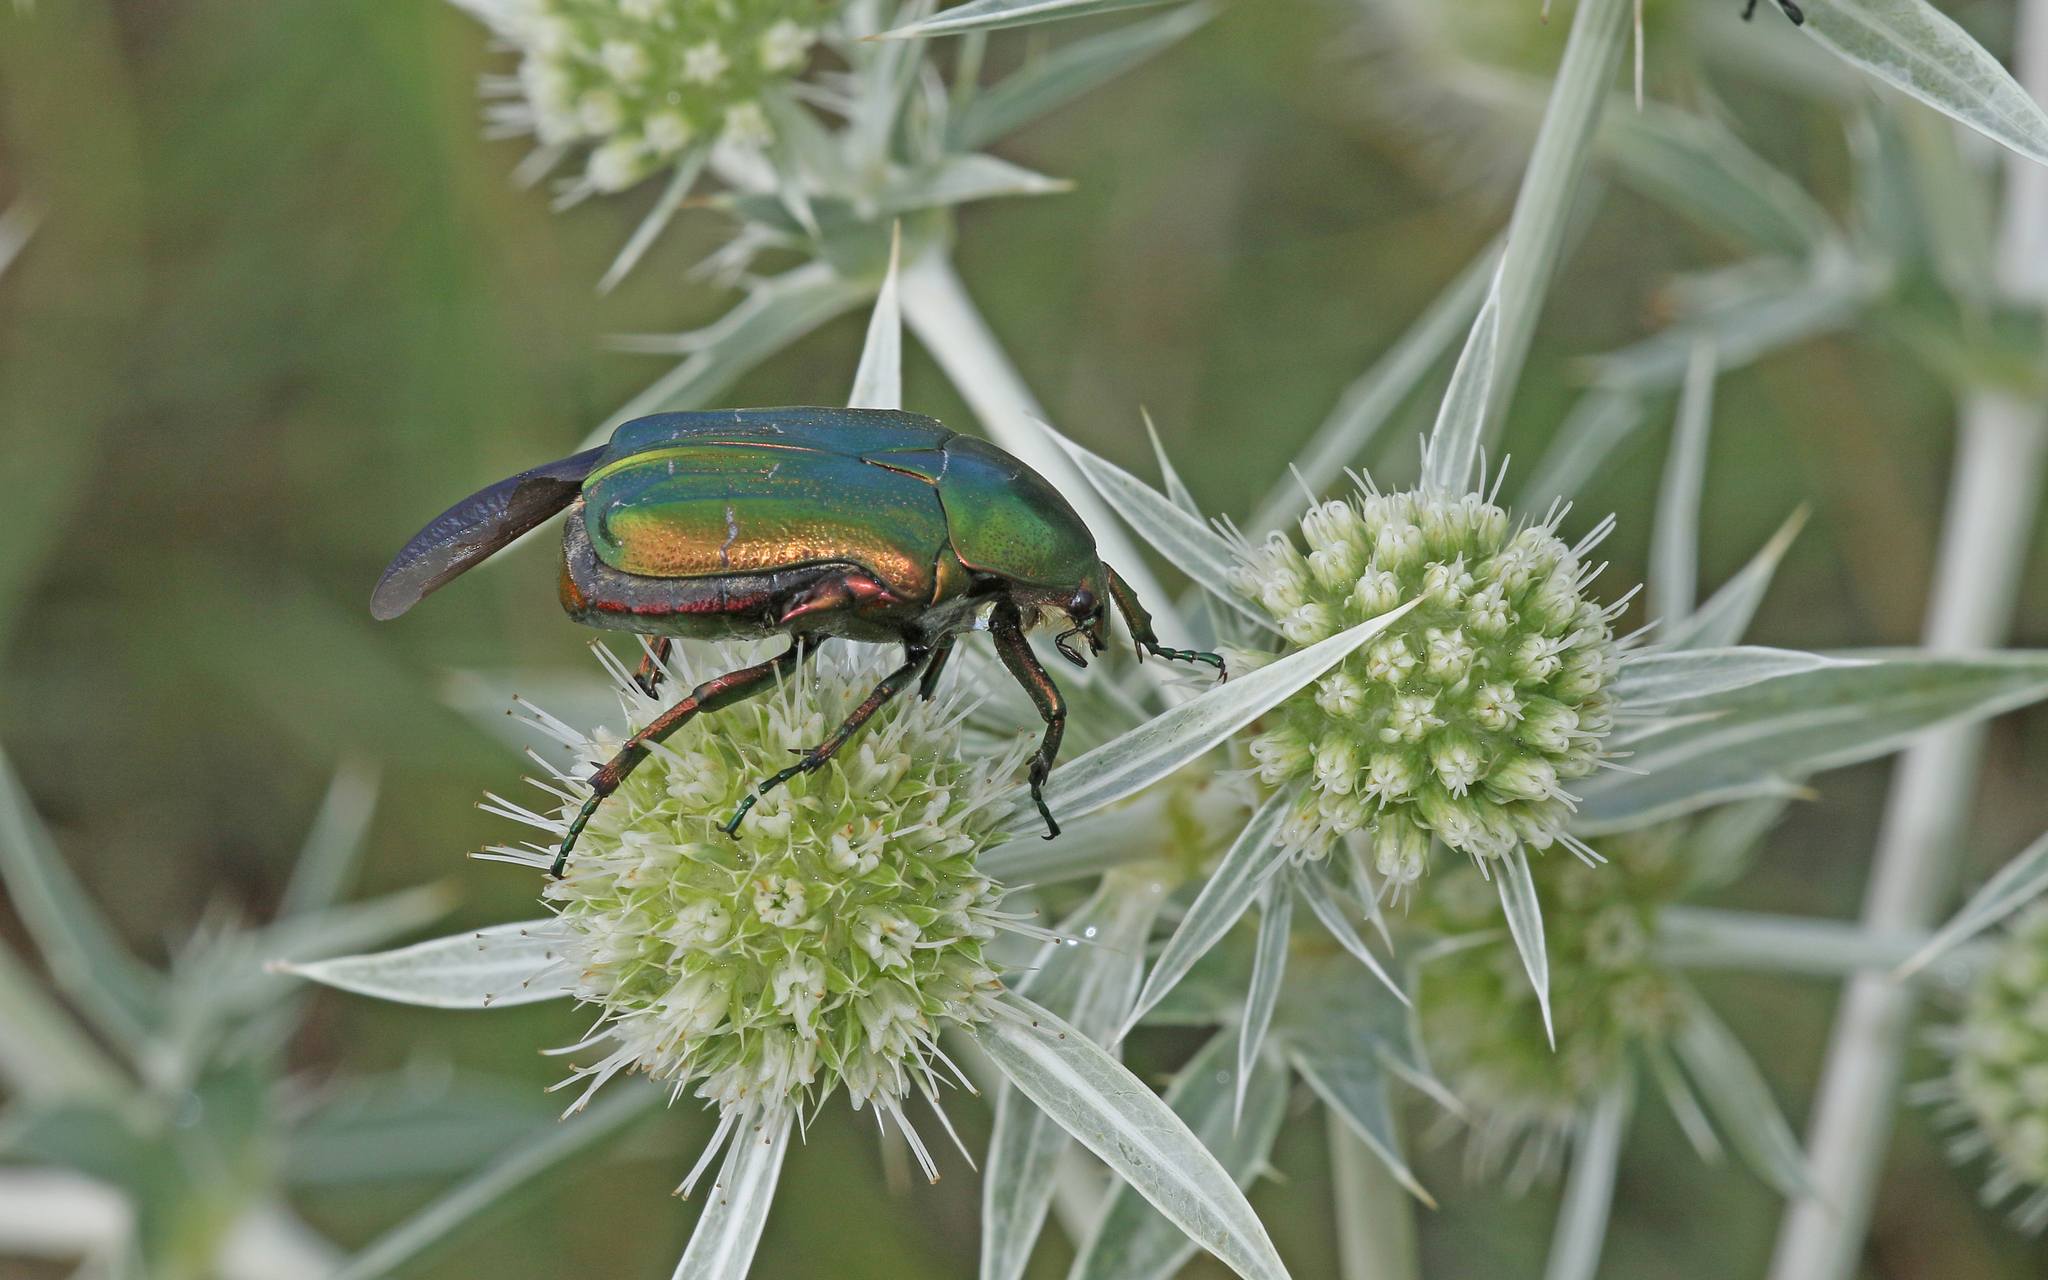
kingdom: Animalia
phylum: Arthropoda
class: Insecta
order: Coleoptera
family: Scarabaeidae
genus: Cetonia
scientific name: Cetonia aurata
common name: Rose chafer
